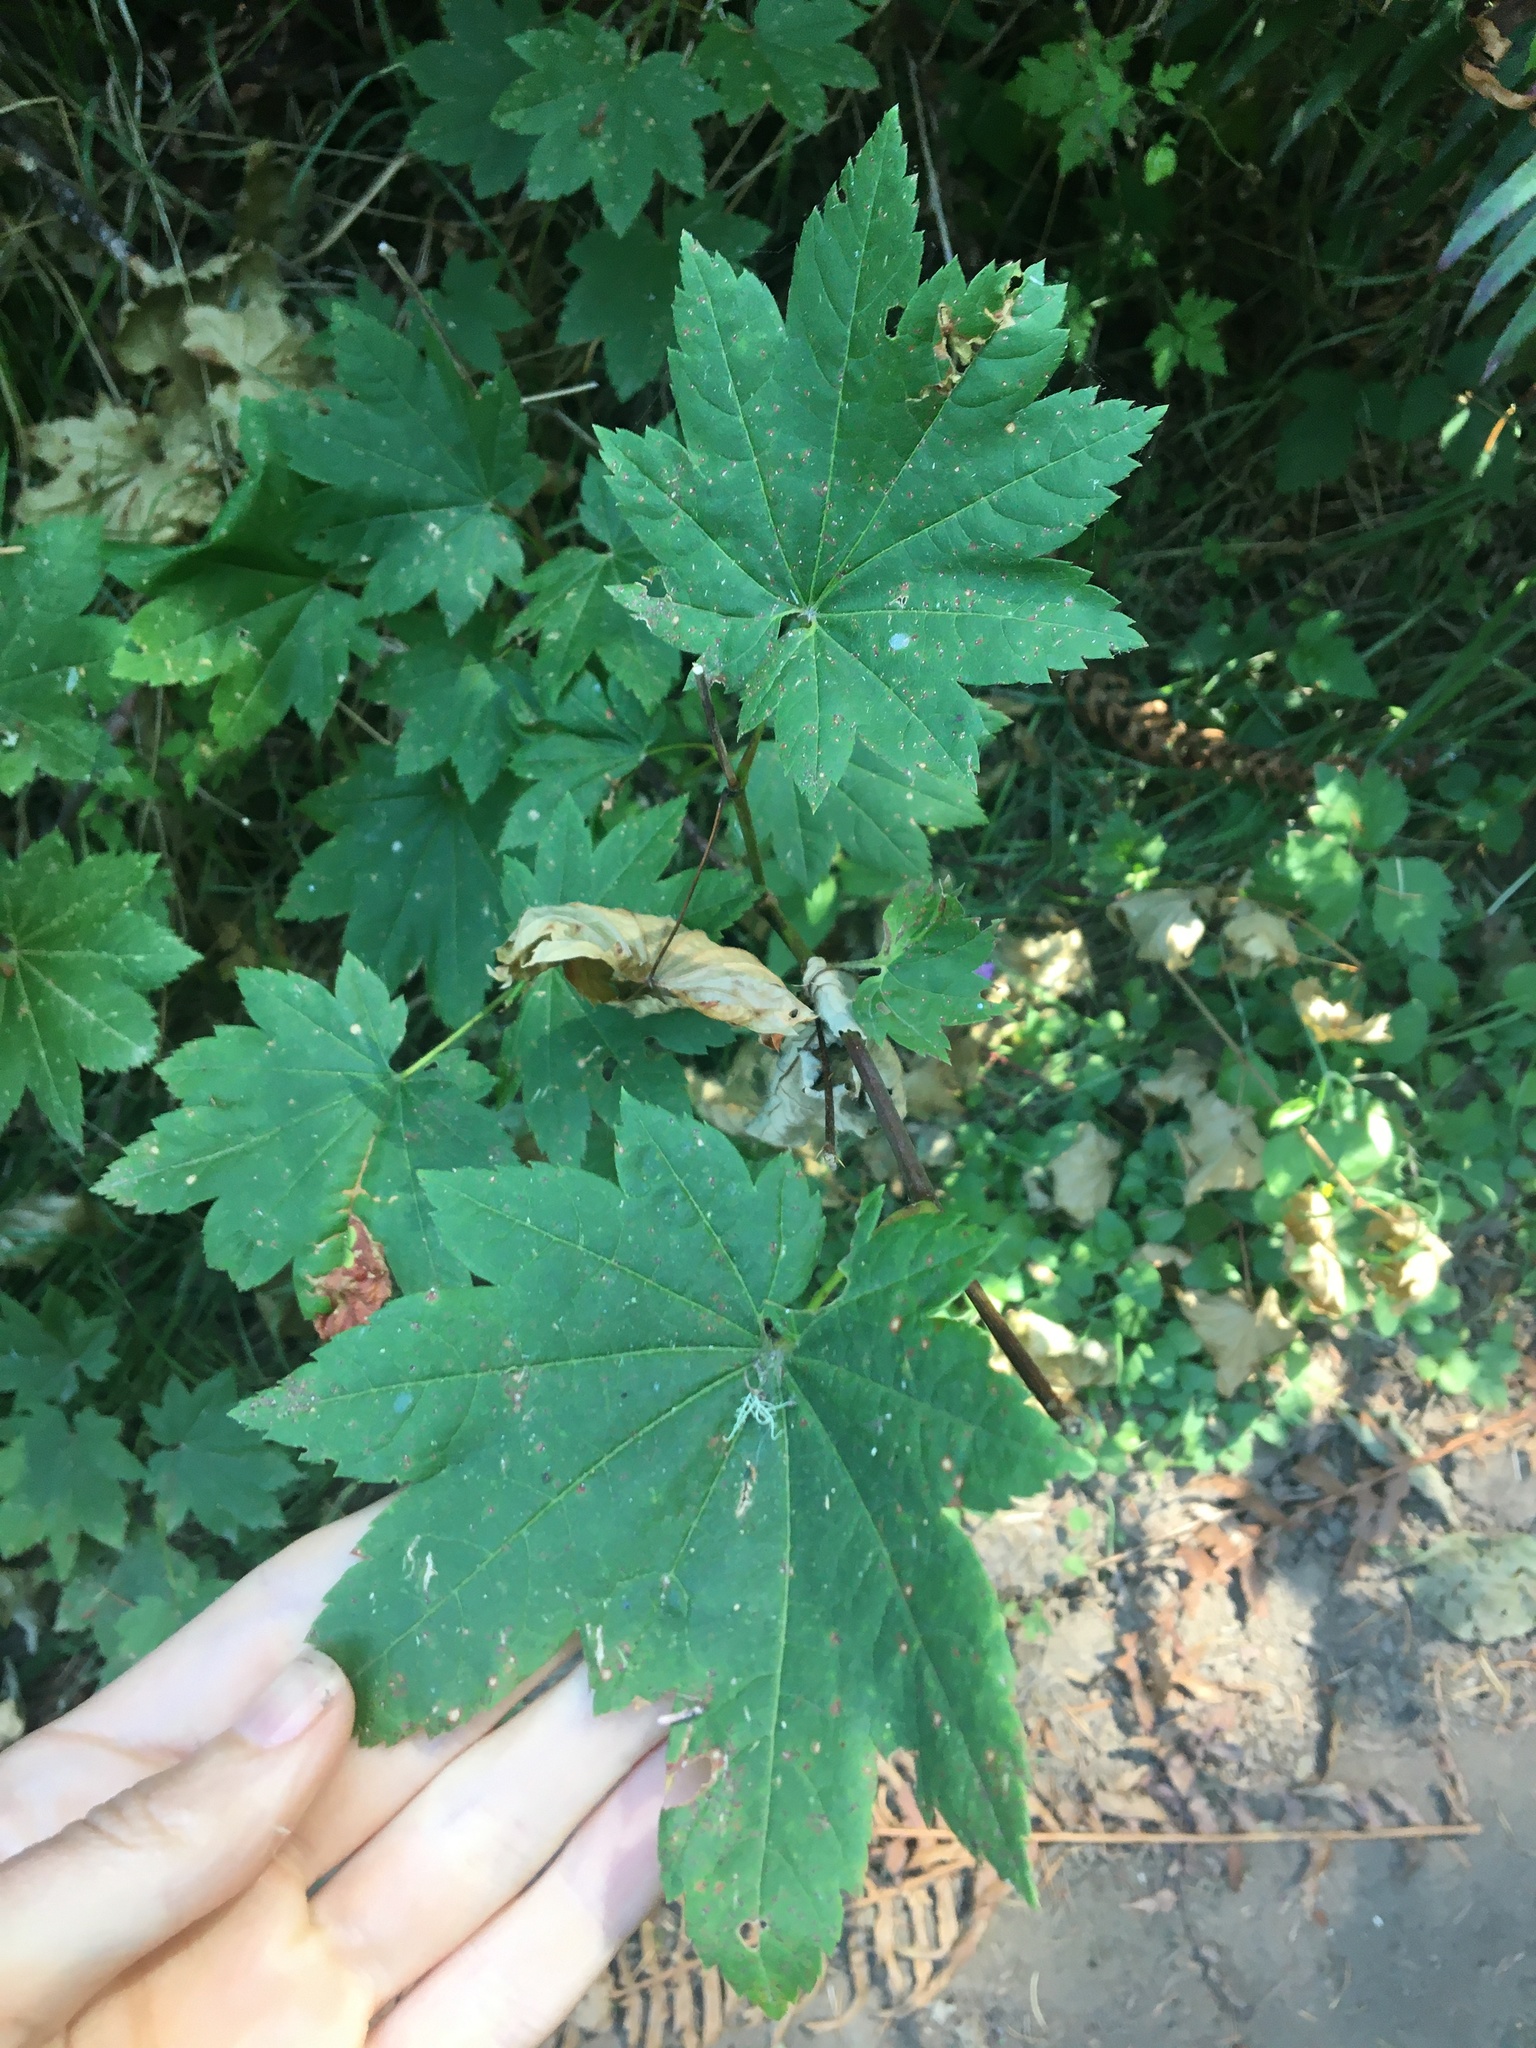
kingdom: Plantae
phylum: Tracheophyta
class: Magnoliopsida
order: Sapindales
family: Sapindaceae
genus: Acer
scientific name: Acer circinatum
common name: Vine maple
